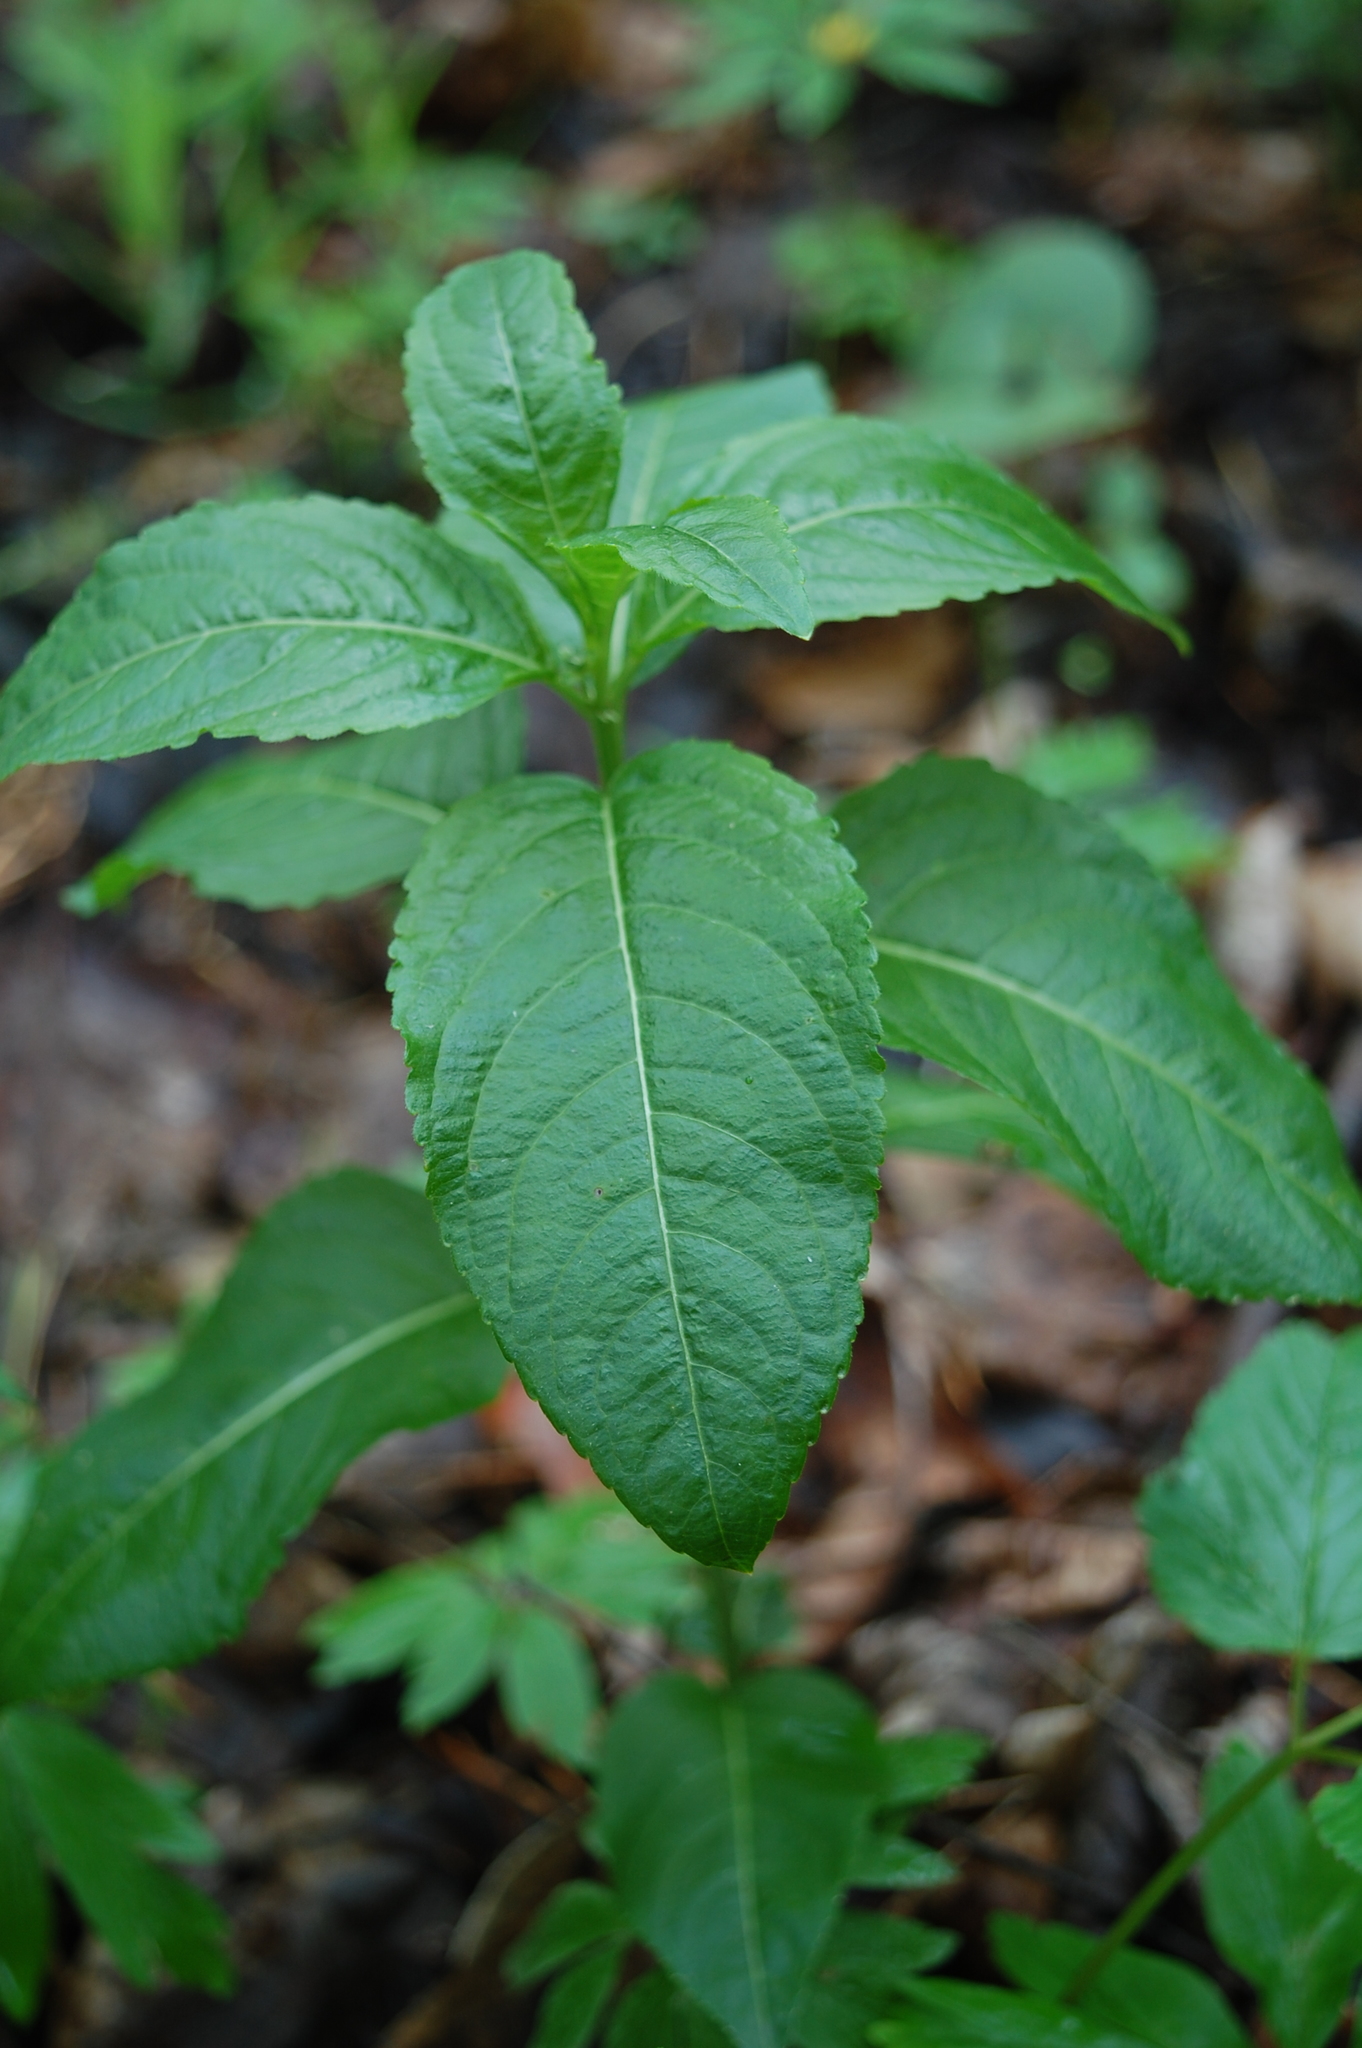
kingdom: Plantae
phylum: Tracheophyta
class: Magnoliopsida
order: Malpighiales
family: Euphorbiaceae
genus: Mercurialis
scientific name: Mercurialis perennis
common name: Dog mercury
